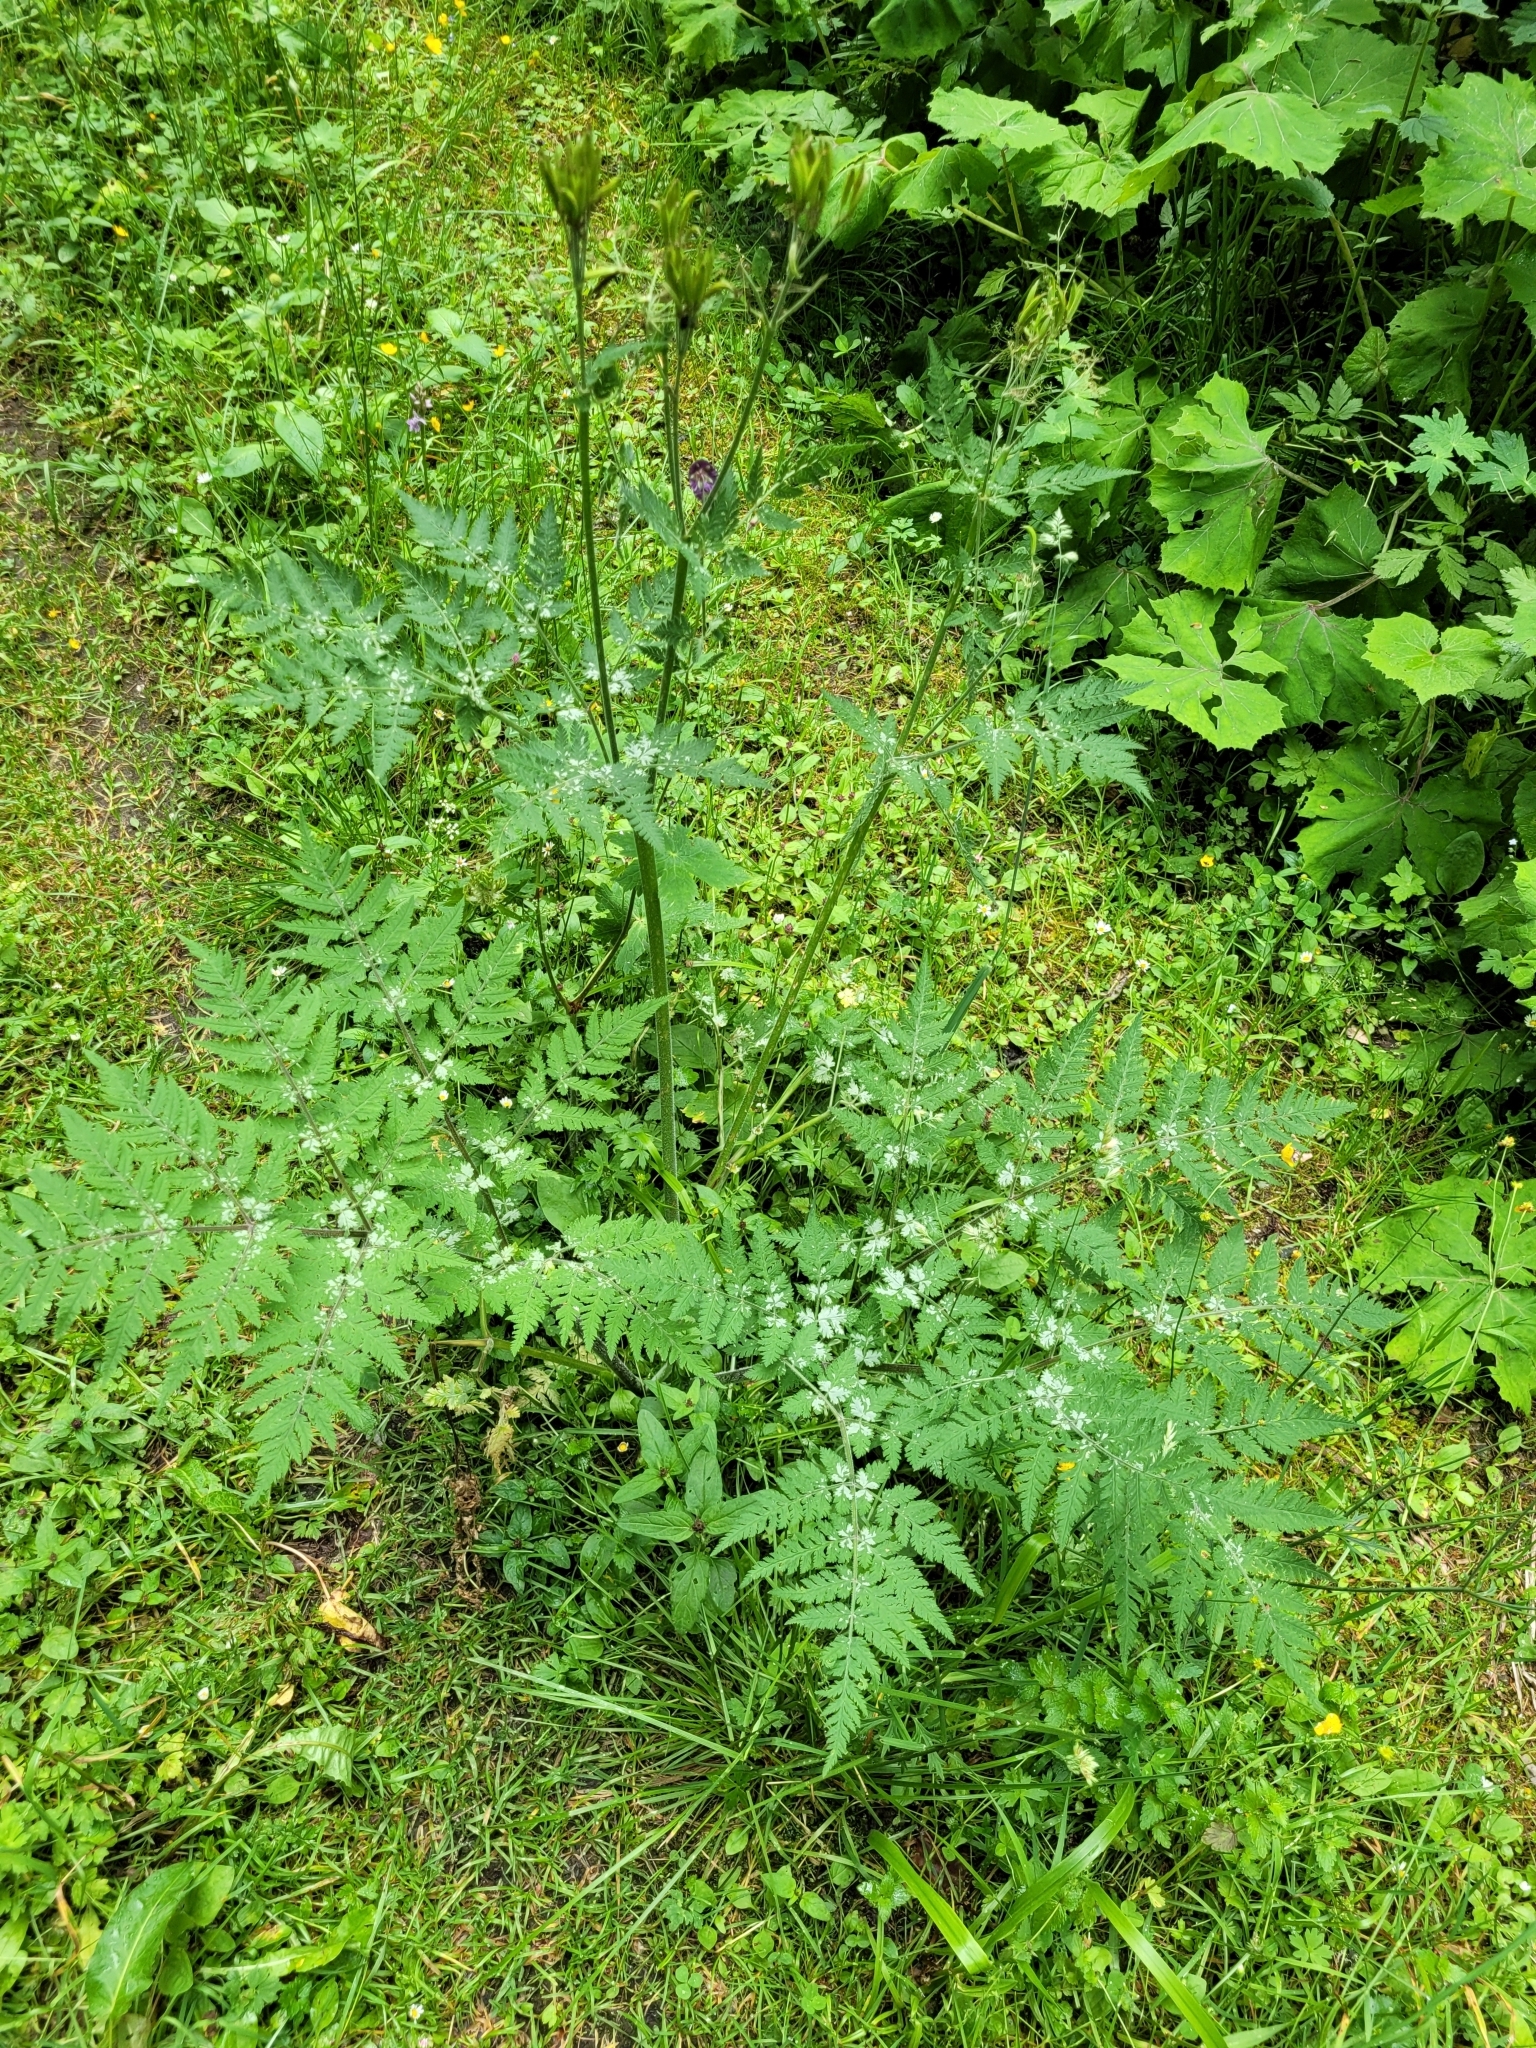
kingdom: Plantae
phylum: Tracheophyta
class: Magnoliopsida
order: Apiales
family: Apiaceae
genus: Myrrhis
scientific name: Myrrhis odorata
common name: Sweet cicely
